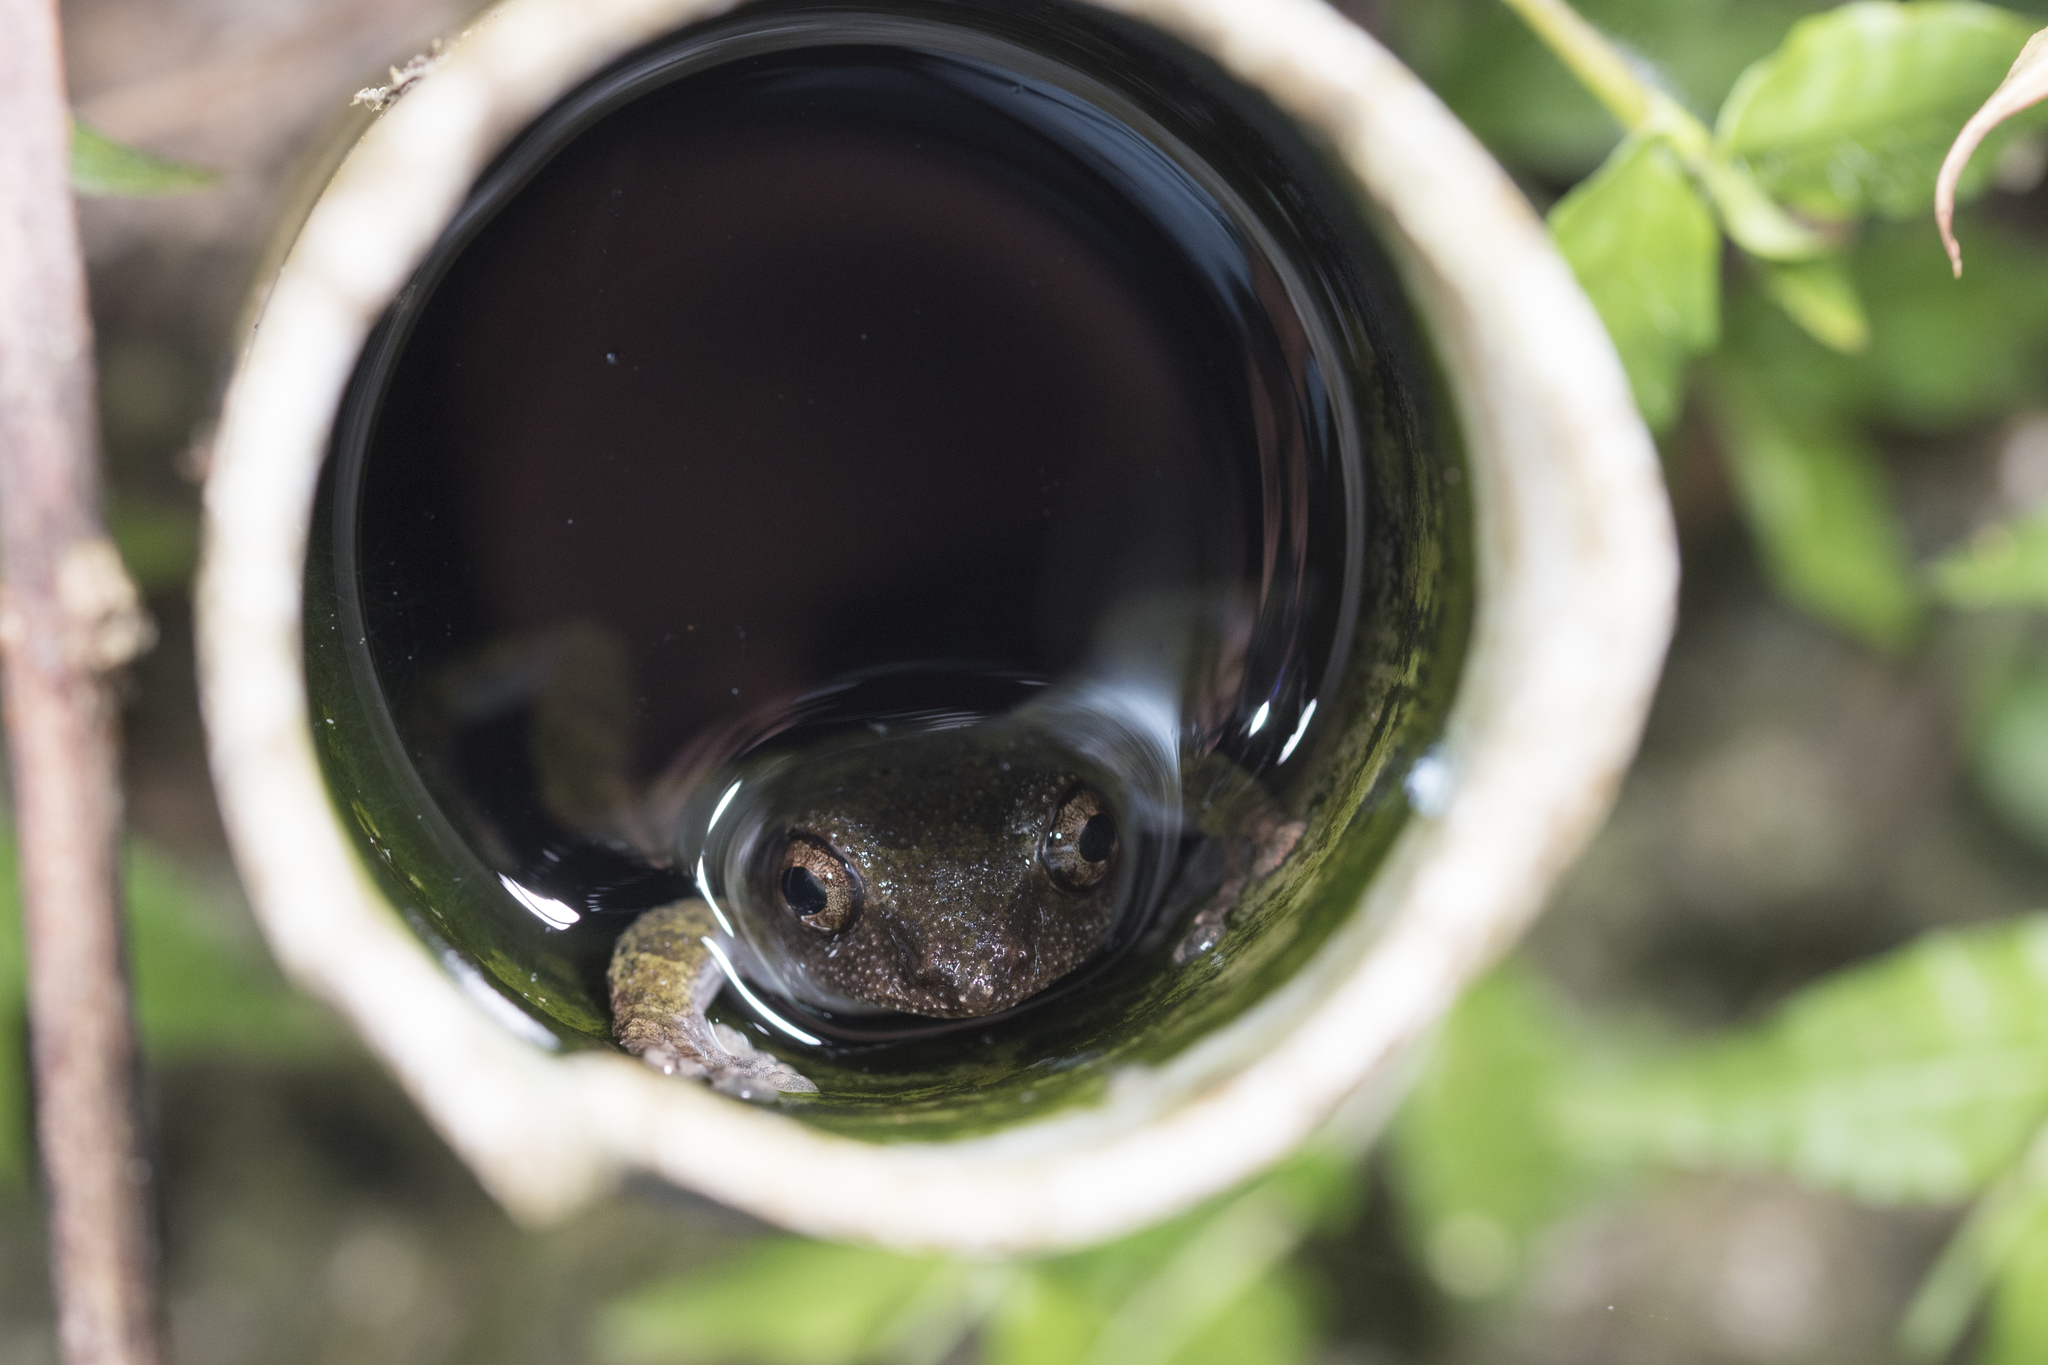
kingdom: Animalia
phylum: Chordata
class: Amphibia
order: Anura
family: Rhacophoridae
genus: Kurixalus
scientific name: Kurixalus eiffingeri
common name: Eiffinger’s treefrog
